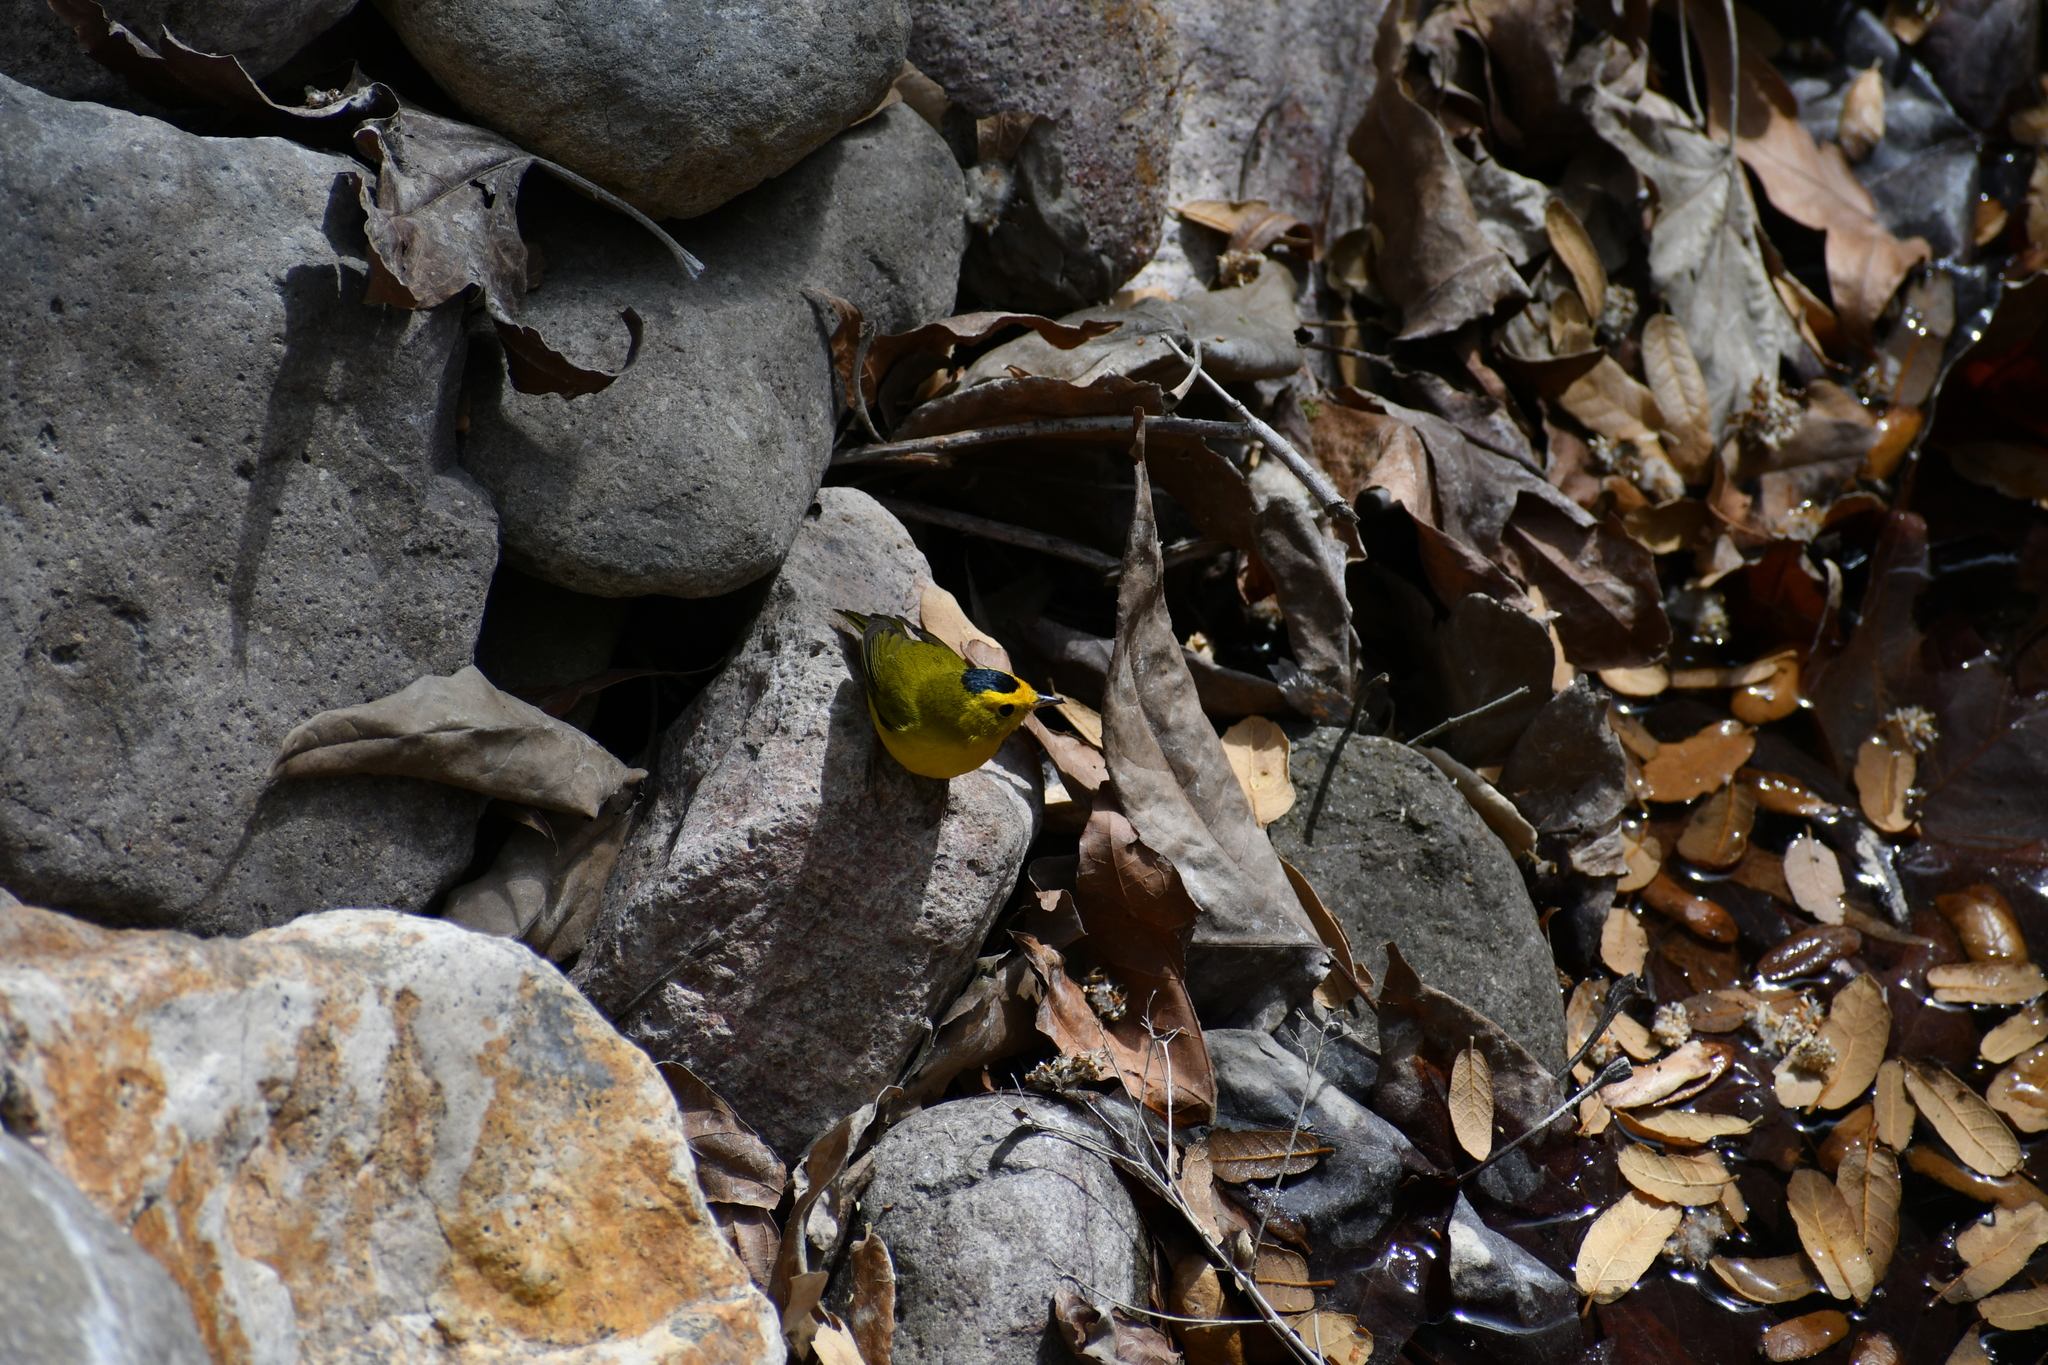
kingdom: Animalia
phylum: Chordata
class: Aves
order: Passeriformes
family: Parulidae
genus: Cardellina
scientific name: Cardellina pusilla
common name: Wilson's warbler
